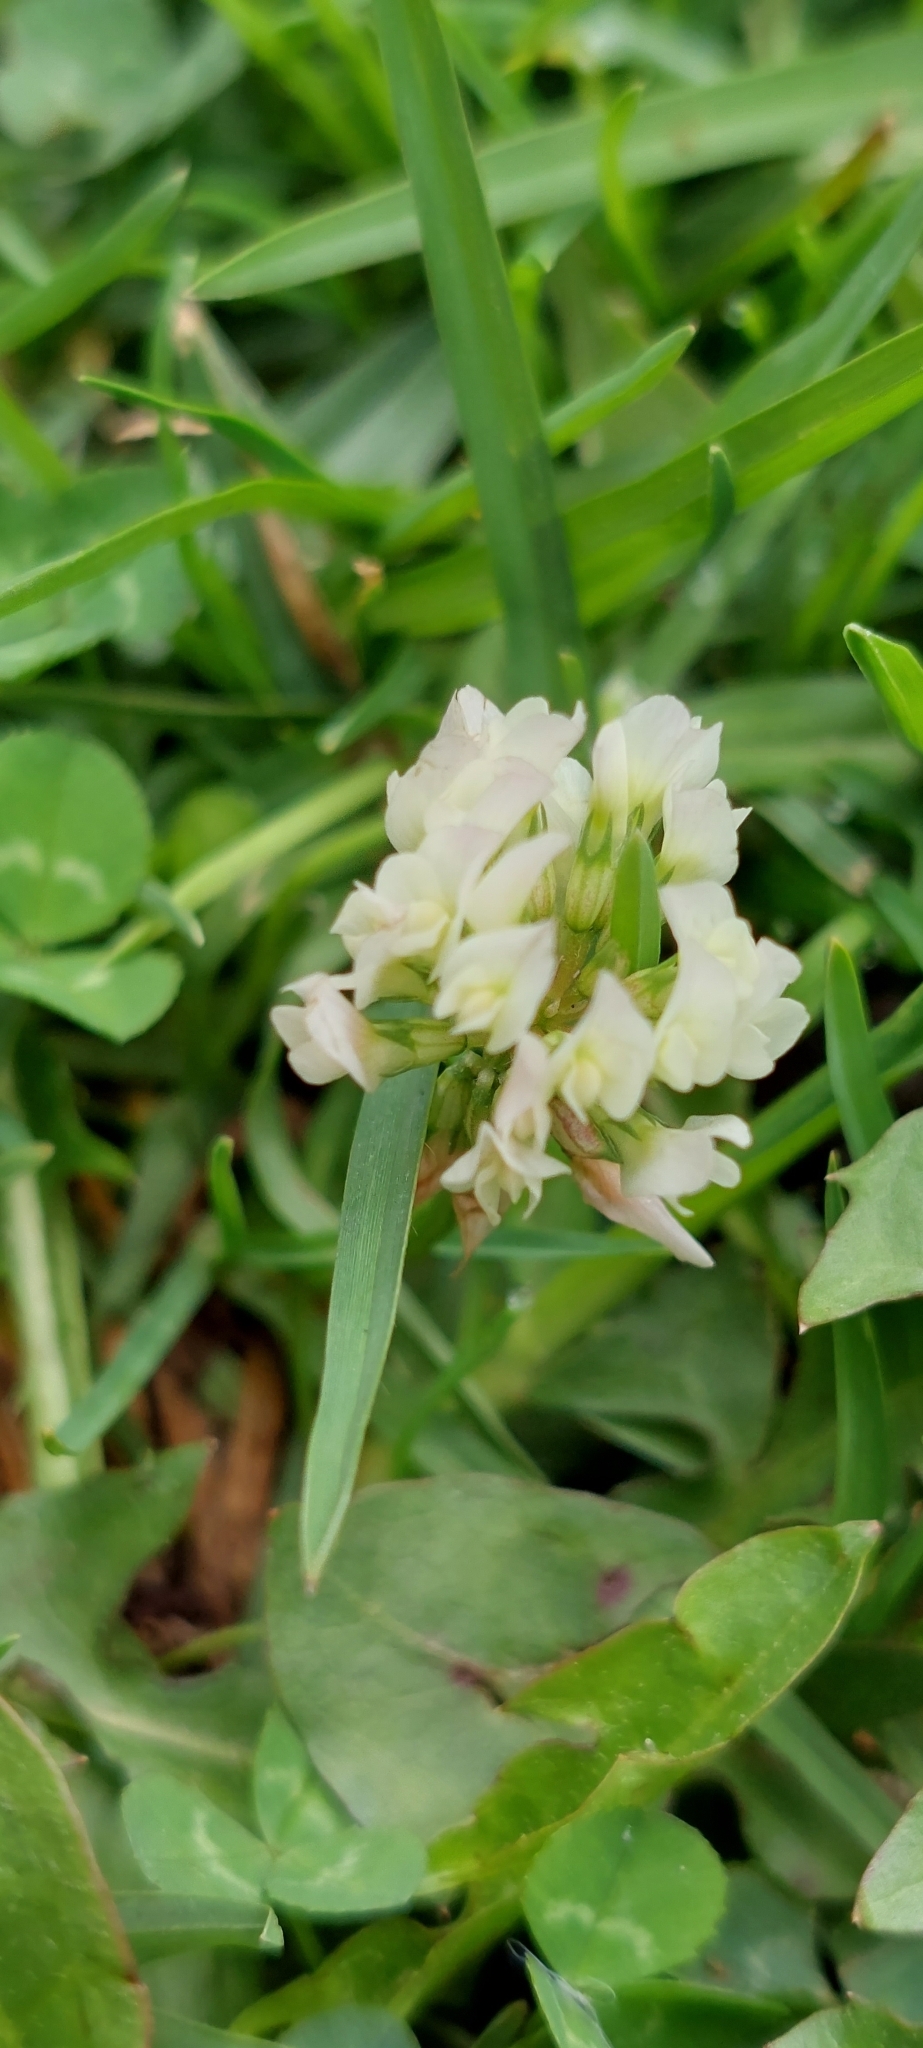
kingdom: Plantae
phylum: Tracheophyta
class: Magnoliopsida
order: Fabales
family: Fabaceae
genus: Trifolium
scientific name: Trifolium repens
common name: White clover
